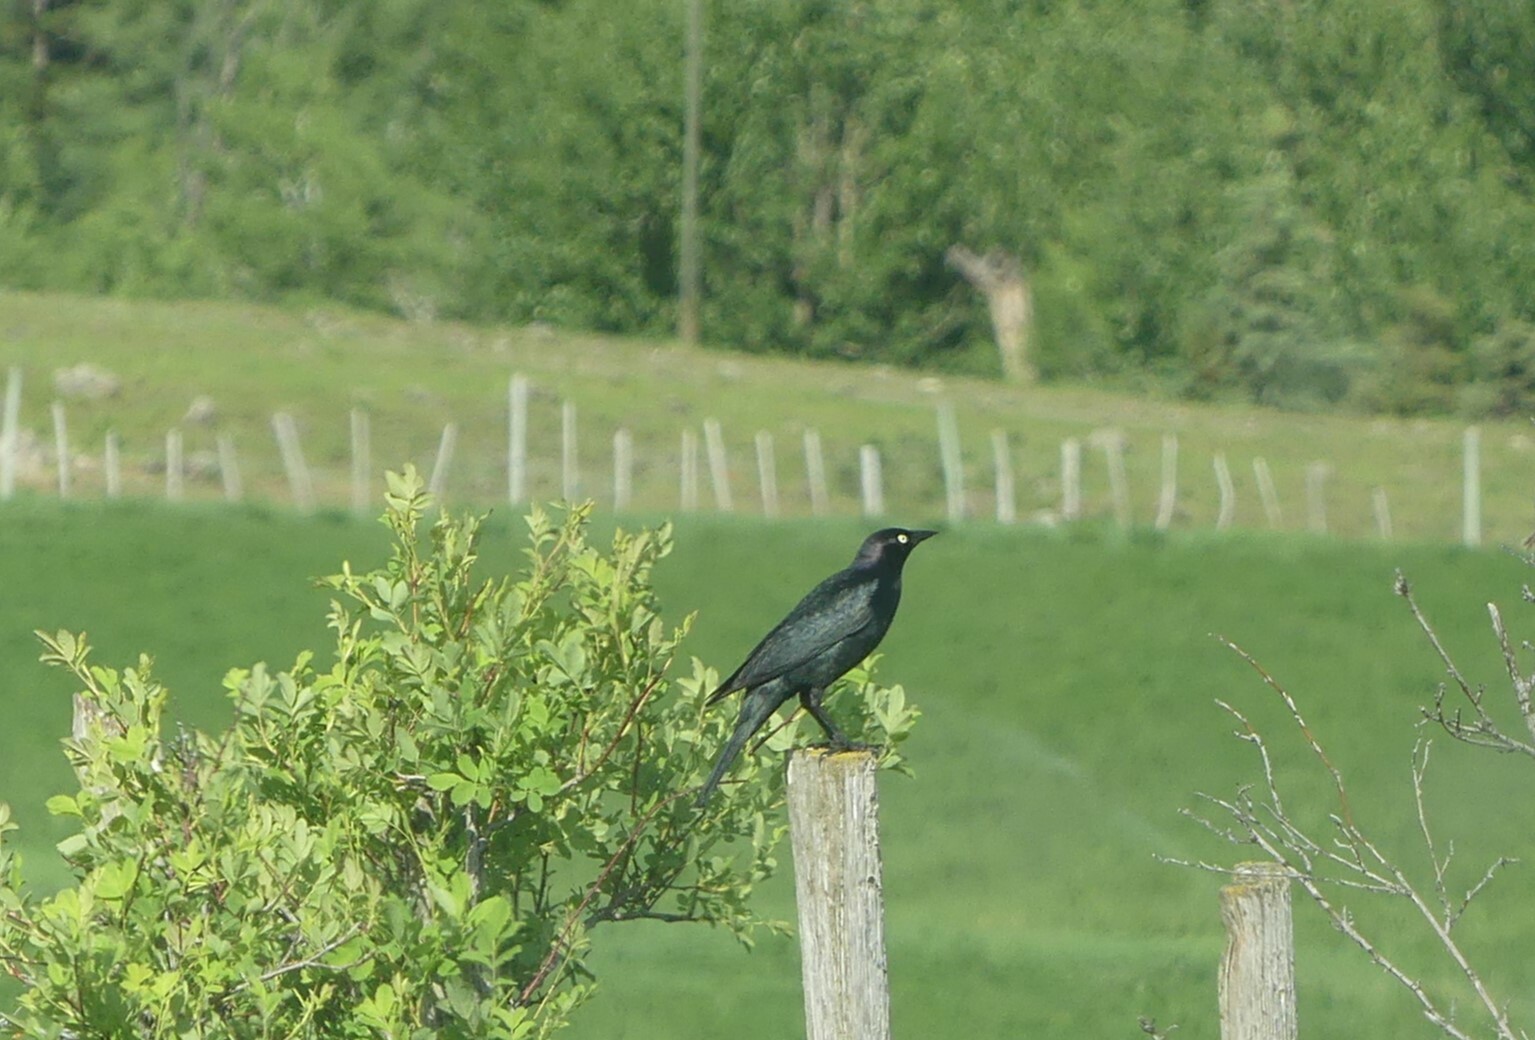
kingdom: Animalia
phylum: Chordata
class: Aves
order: Passeriformes
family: Icteridae
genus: Euphagus
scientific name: Euphagus cyanocephalus
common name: Brewer's blackbird
